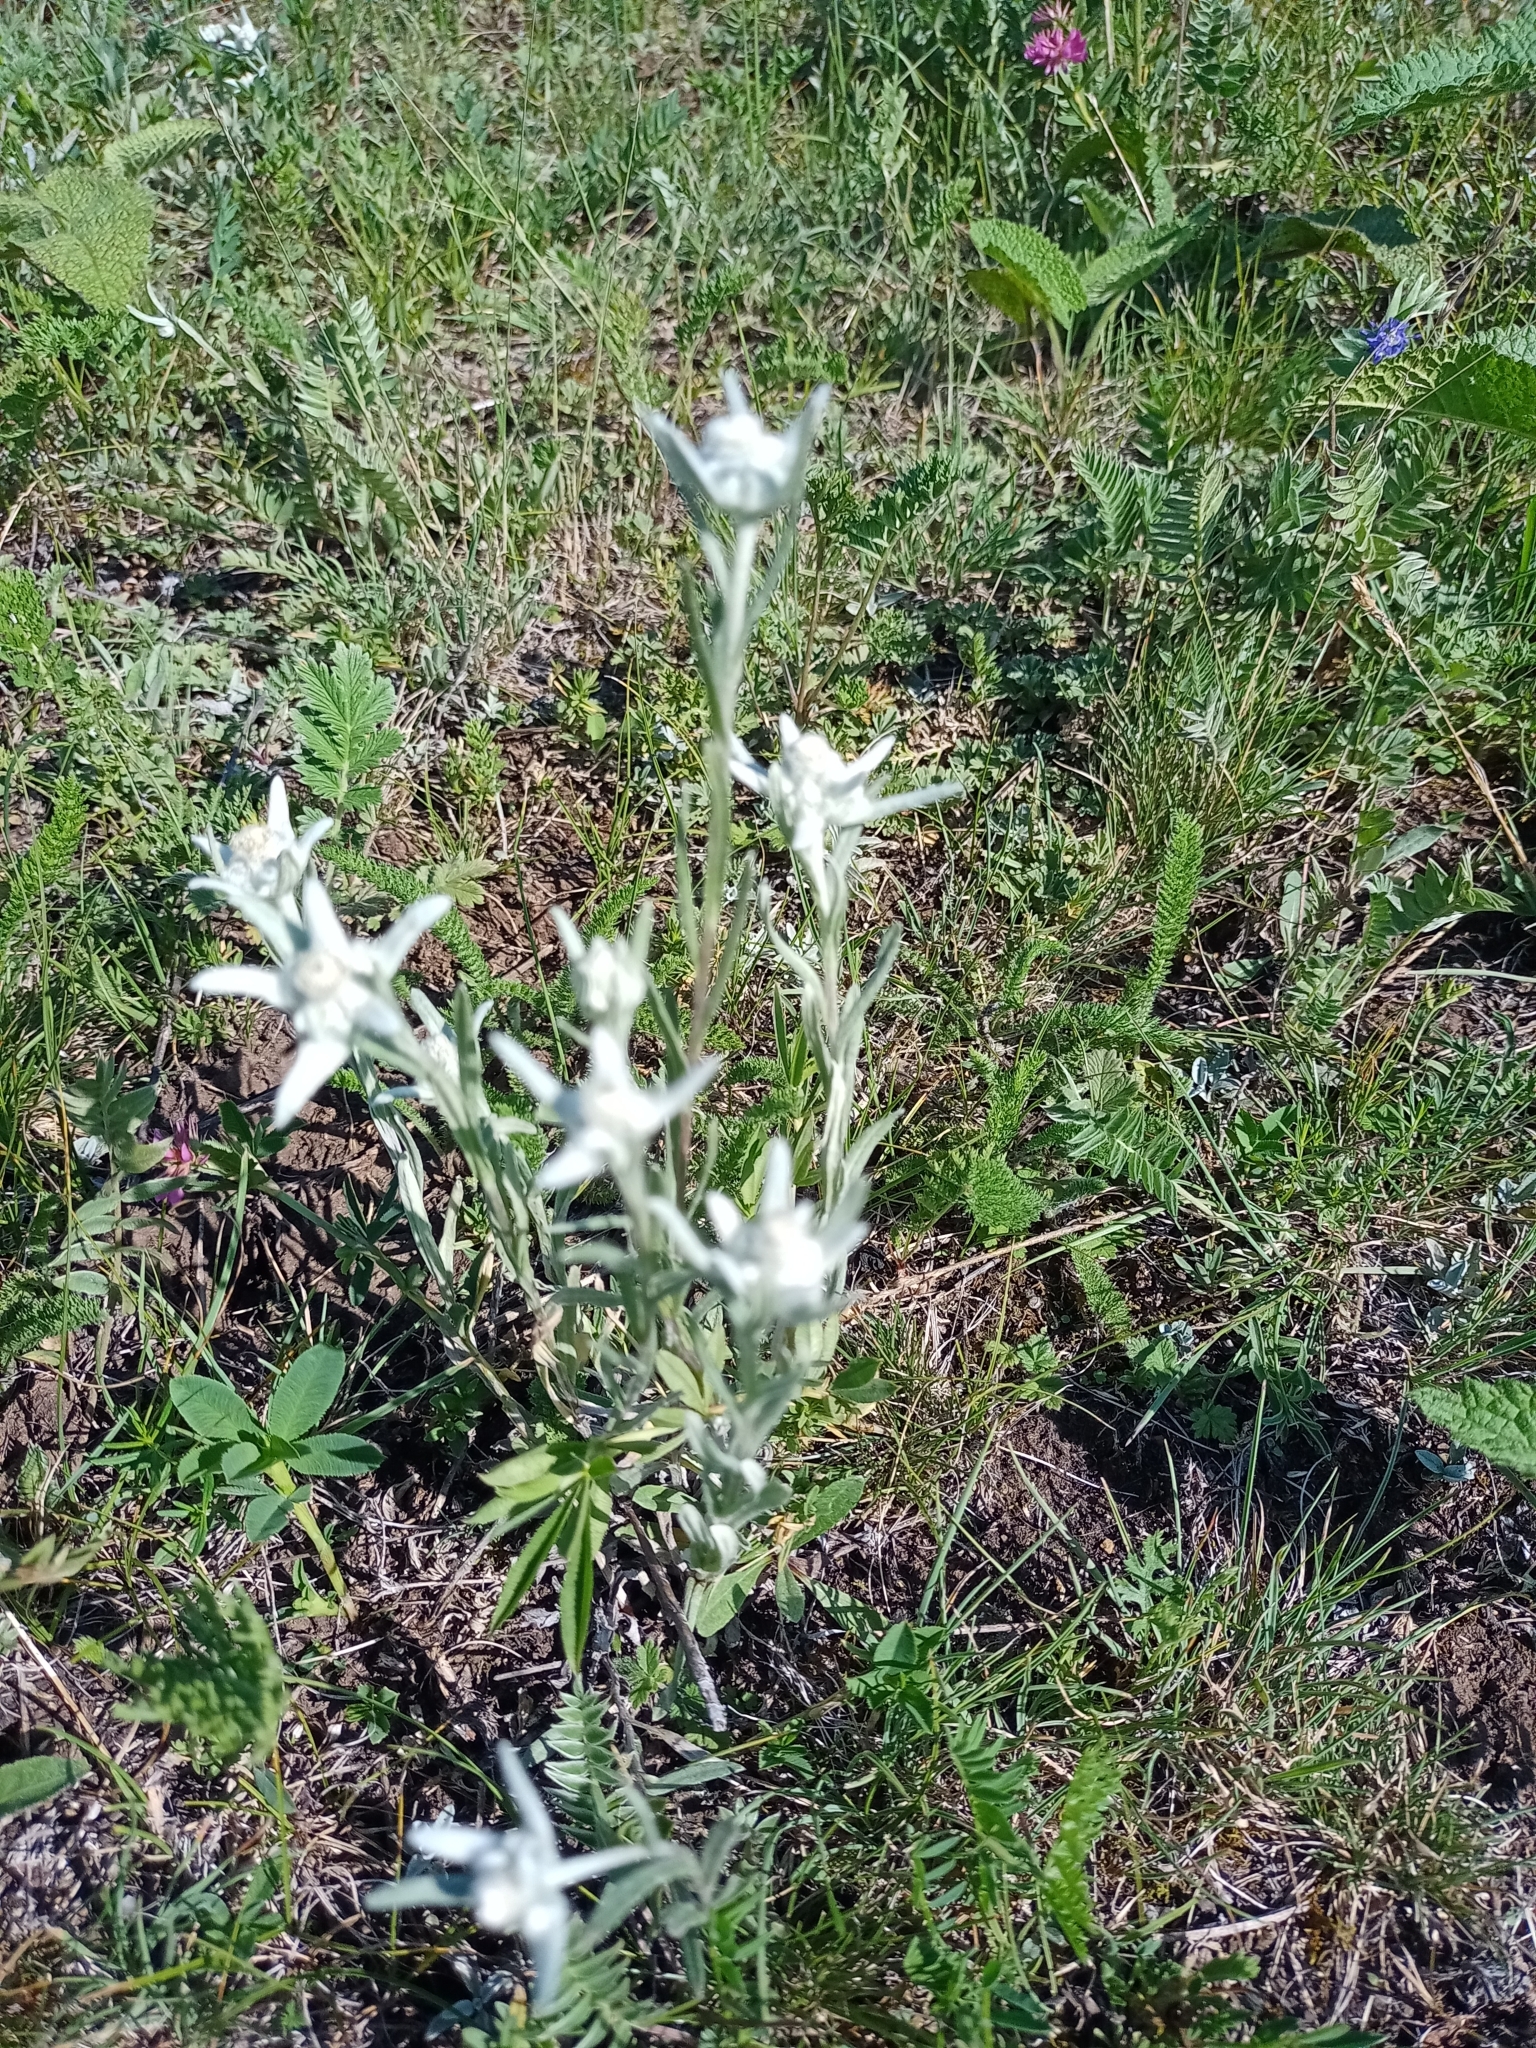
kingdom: Plantae
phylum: Tracheophyta
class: Magnoliopsida
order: Asterales
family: Asteraceae
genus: Leontopodium
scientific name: Leontopodium leontopodioides
